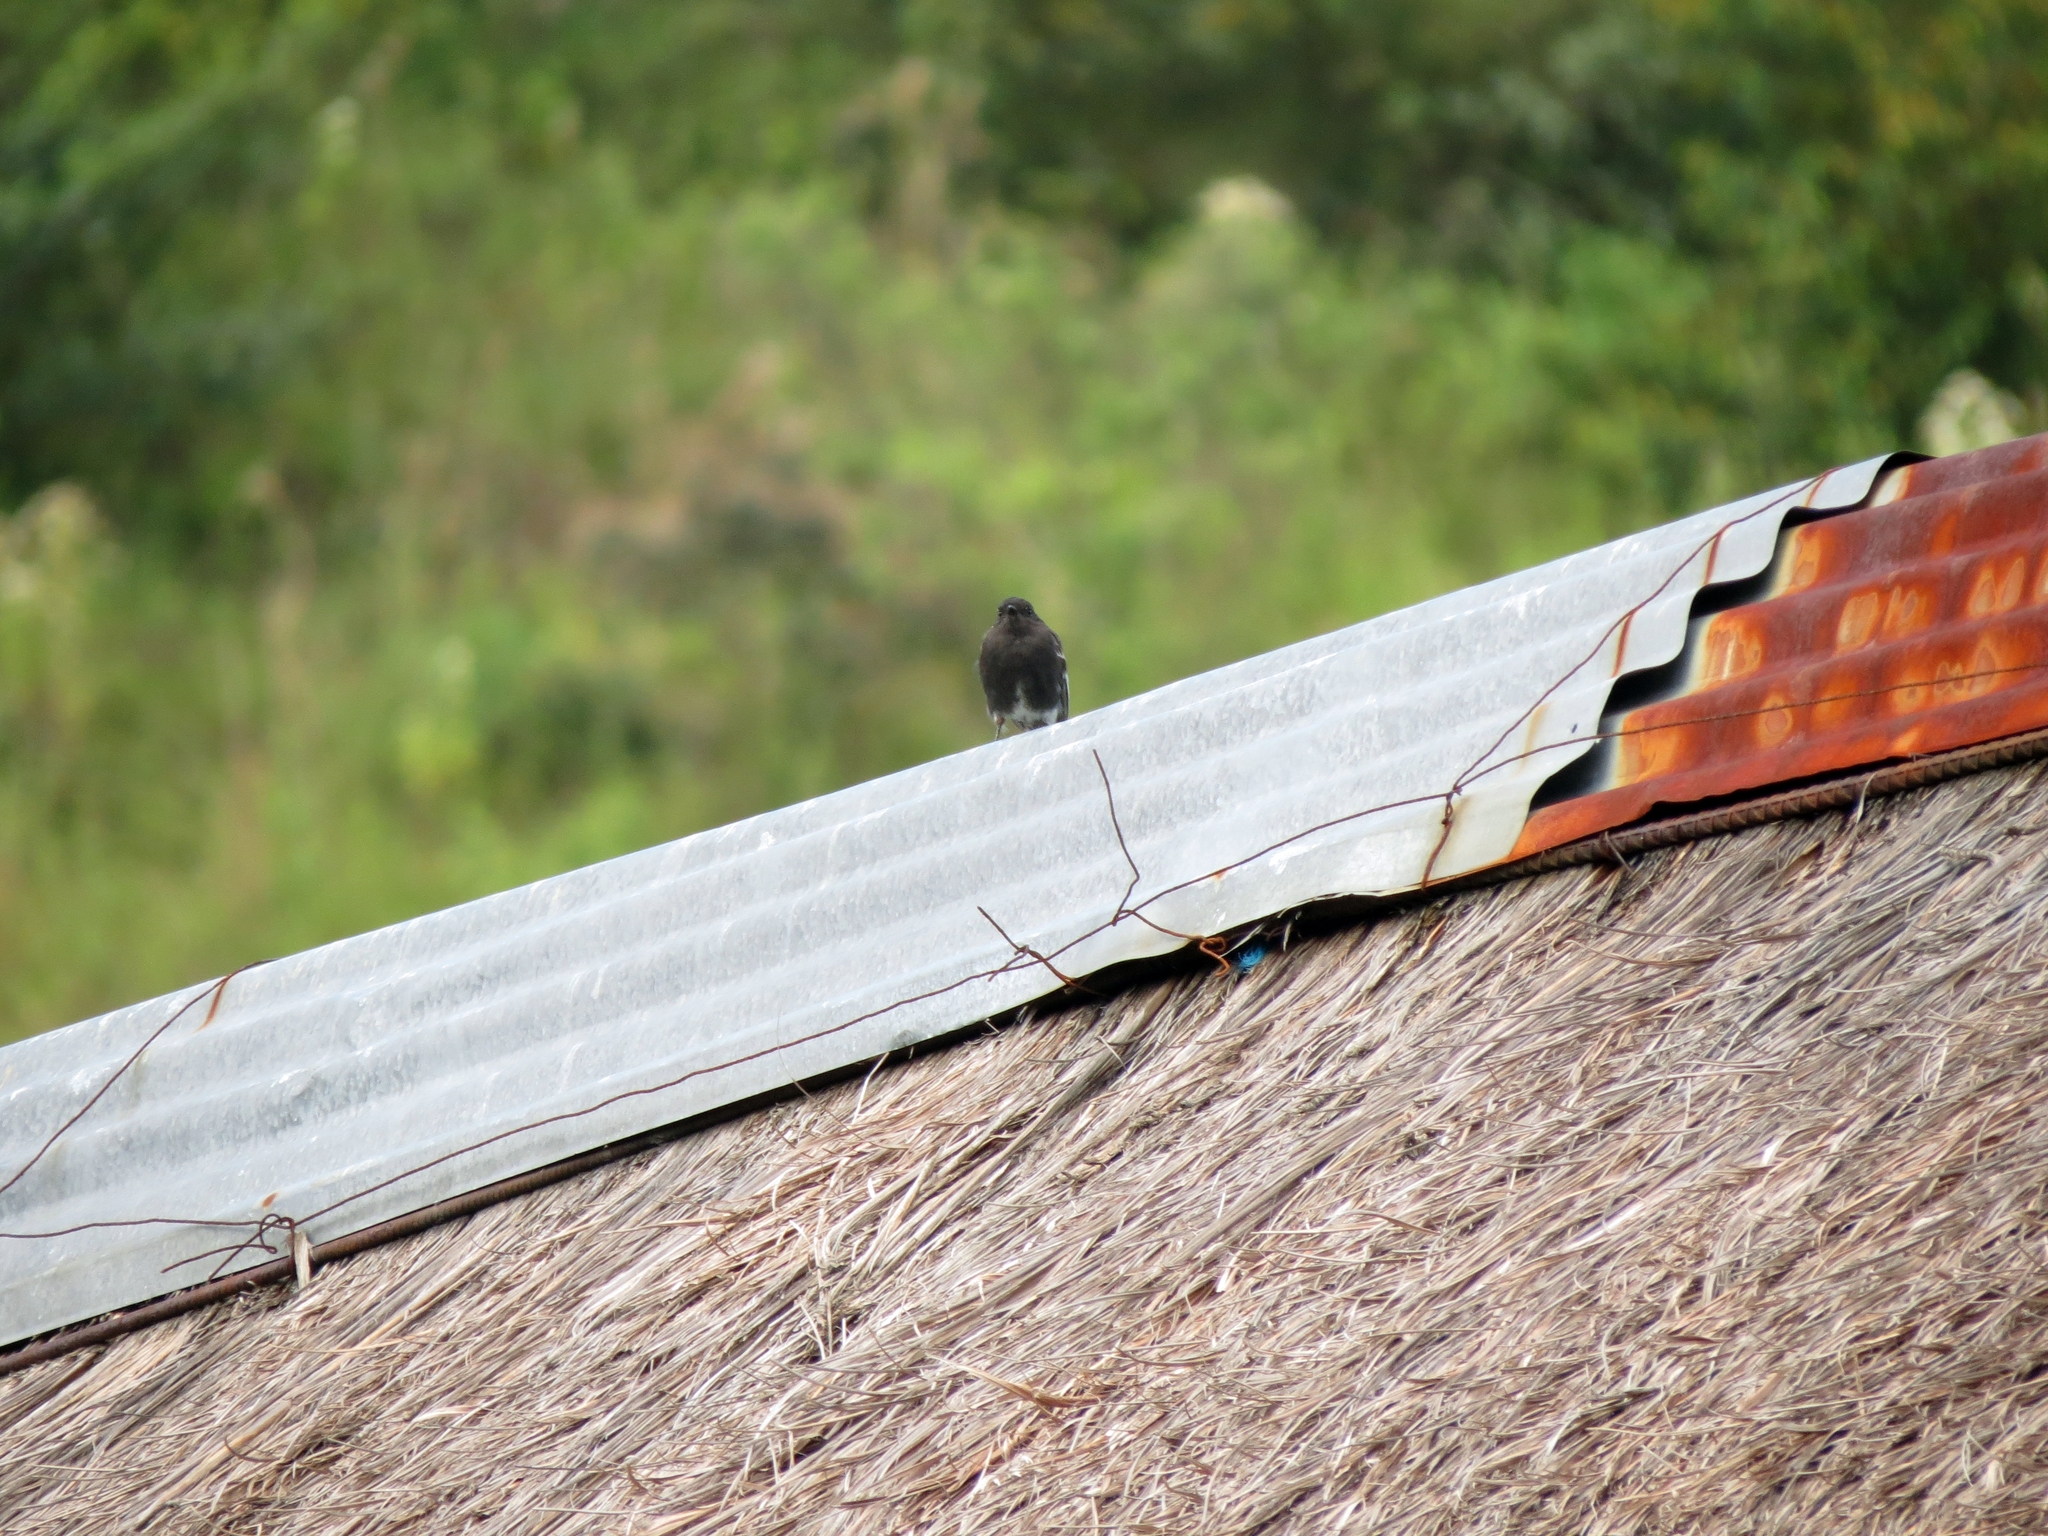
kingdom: Animalia
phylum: Chordata
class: Aves
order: Passeriformes
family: Tyrannidae
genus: Sayornis
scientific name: Sayornis nigricans
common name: Black phoebe
